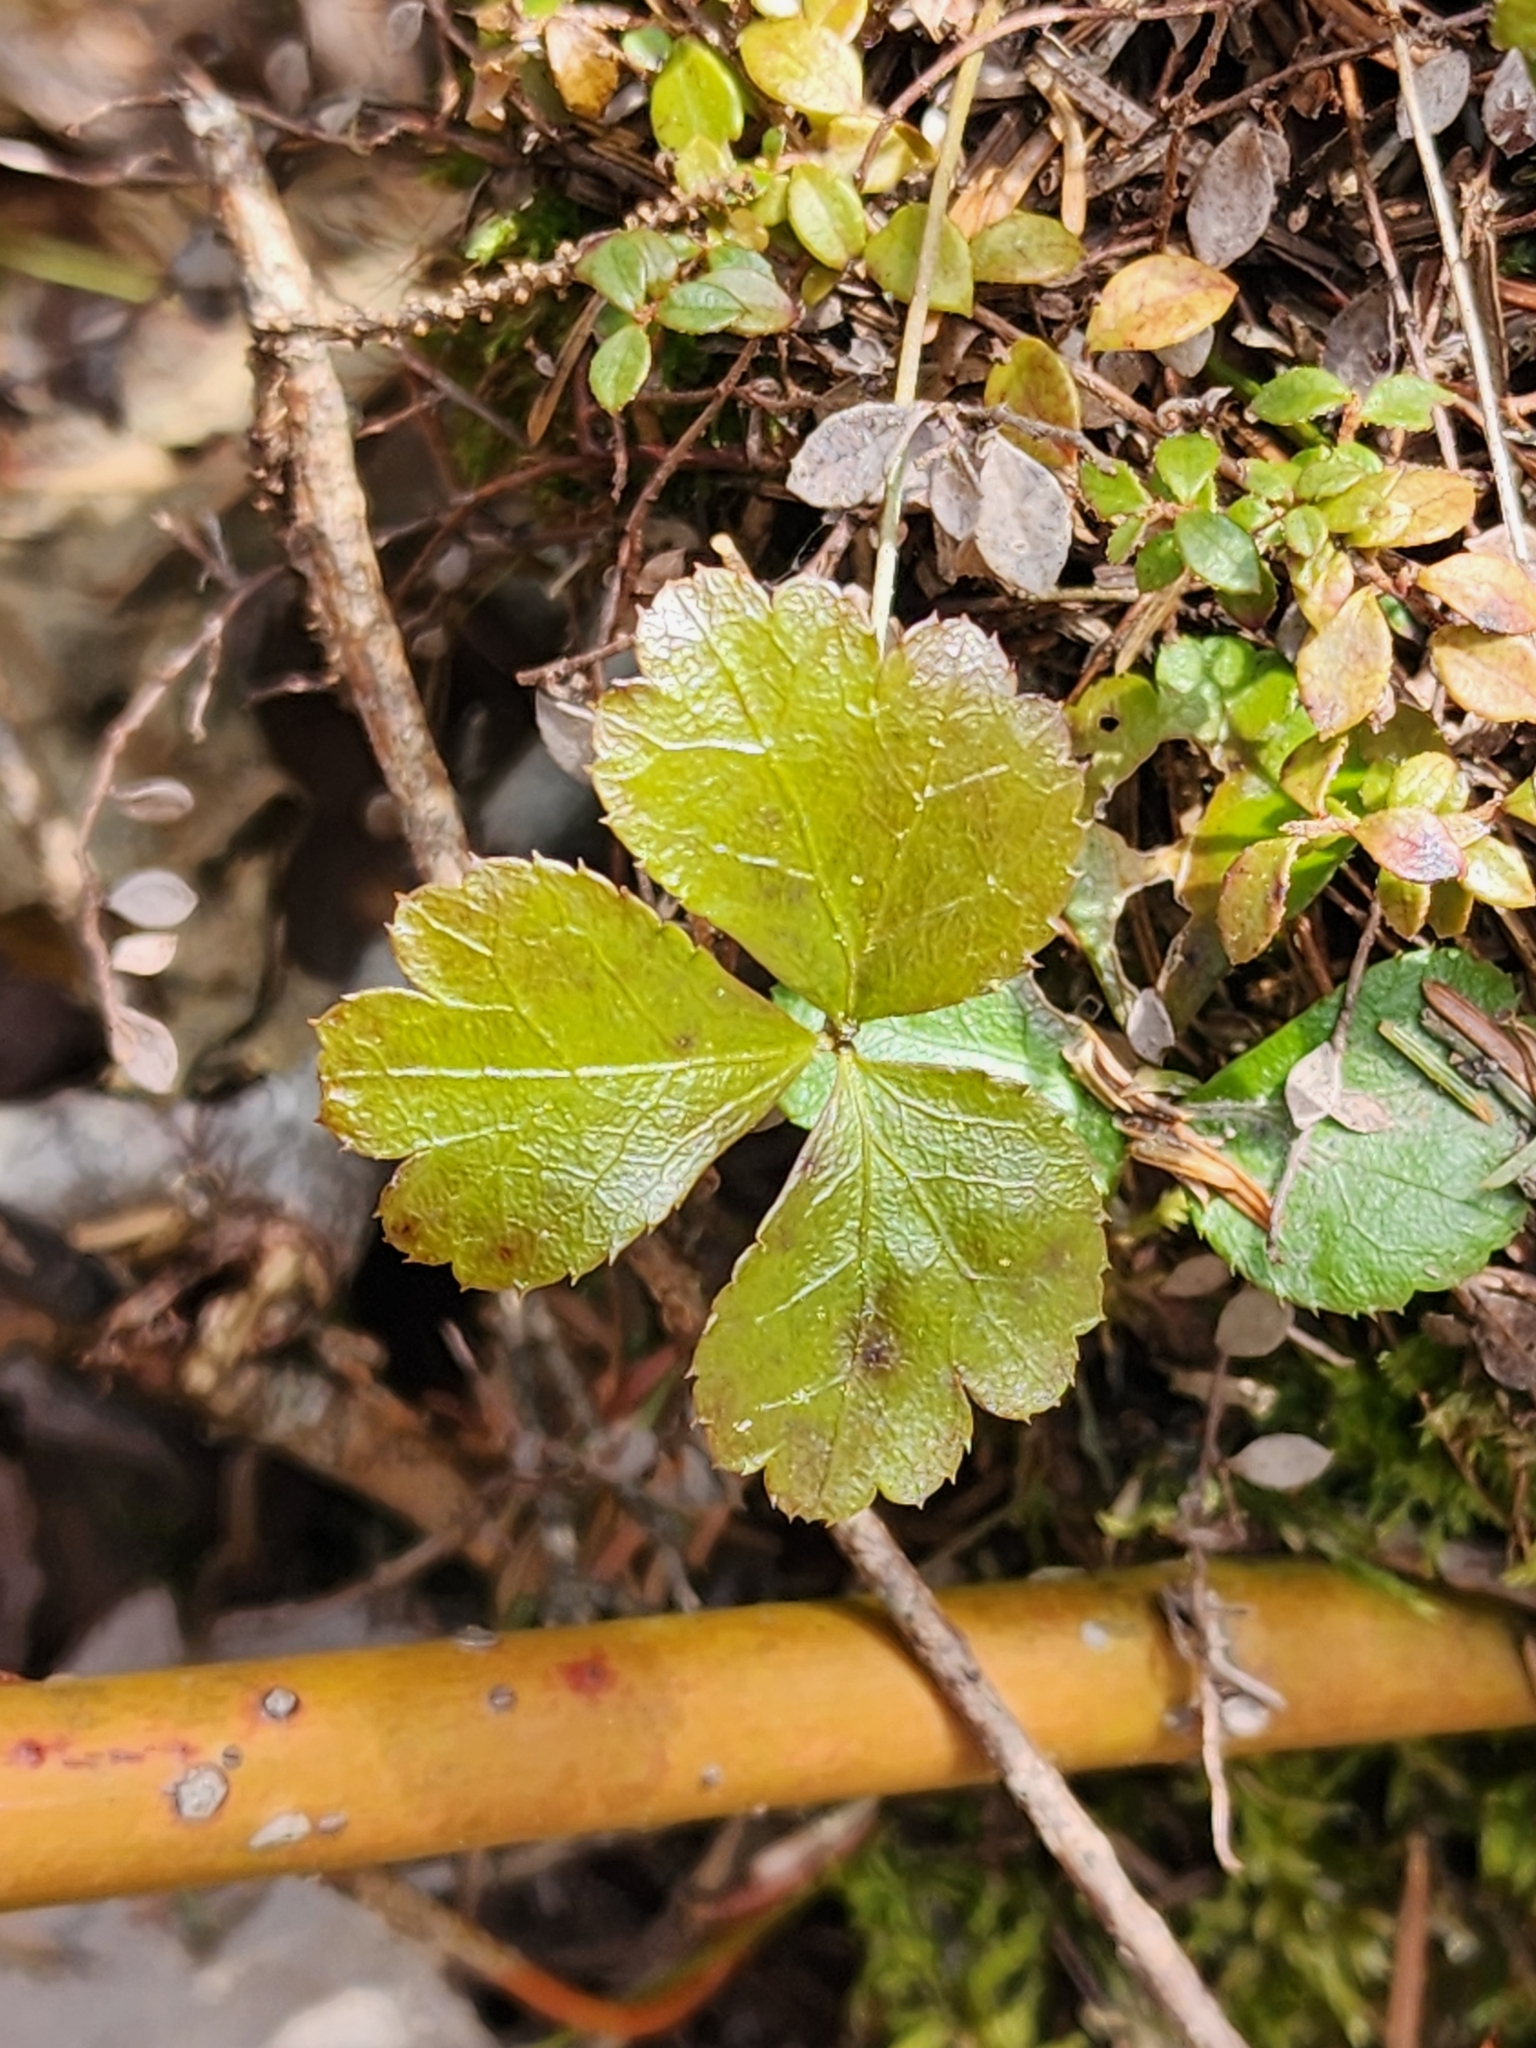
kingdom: Plantae
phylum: Tracheophyta
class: Magnoliopsida
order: Ranunculales
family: Ranunculaceae
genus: Coptis
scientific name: Coptis trifolia
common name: Canker-root
